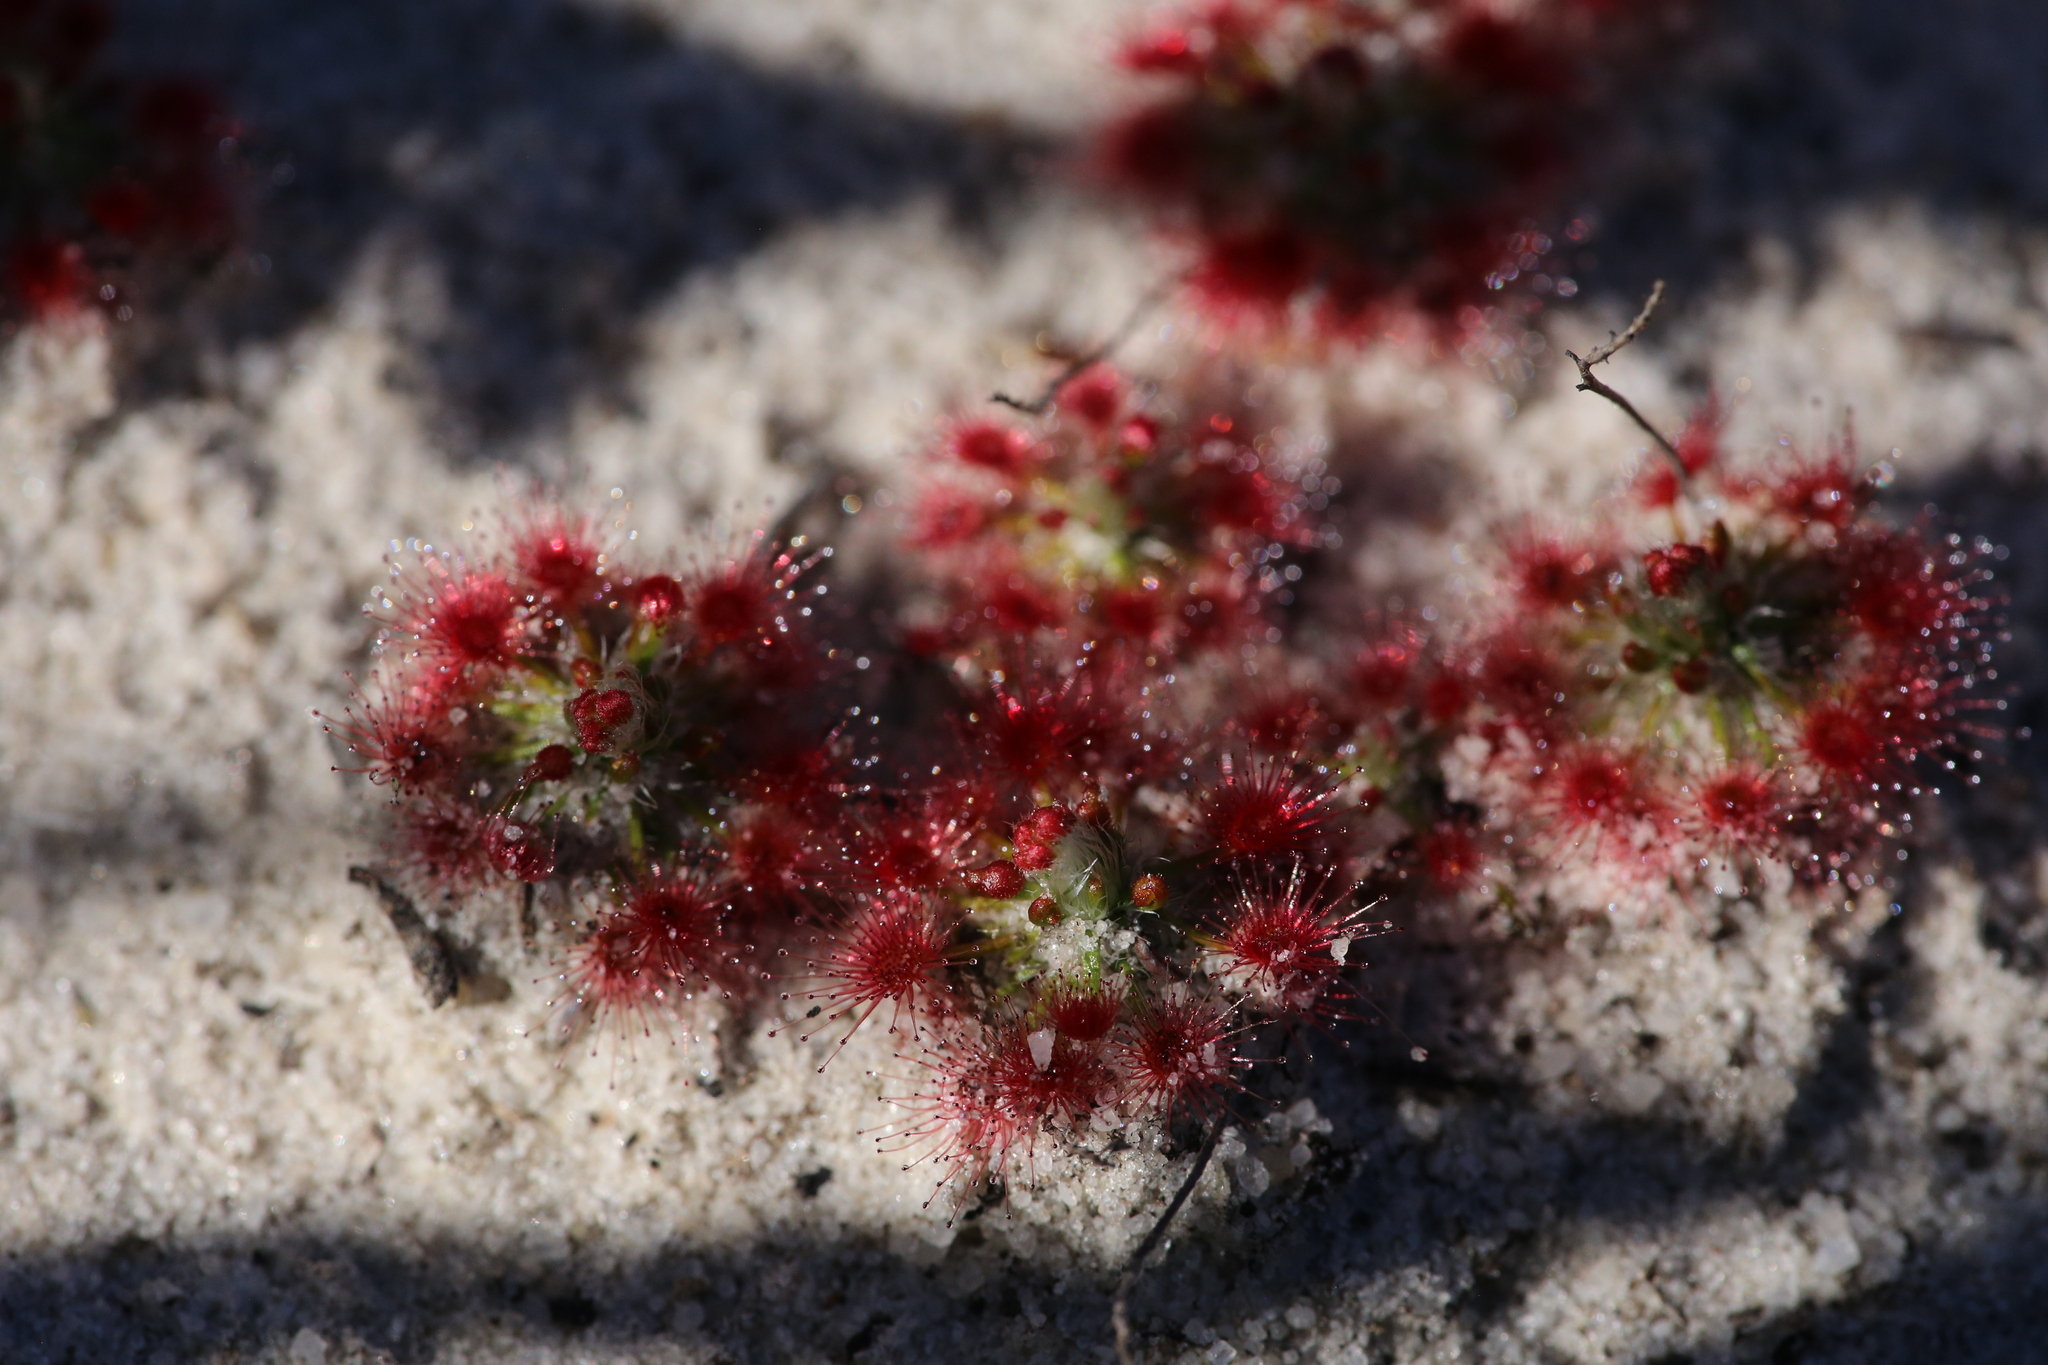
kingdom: Plantae
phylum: Tracheophyta
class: Magnoliopsida
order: Caryophyllales
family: Droseraceae
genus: Drosera
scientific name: Drosera paleacea
